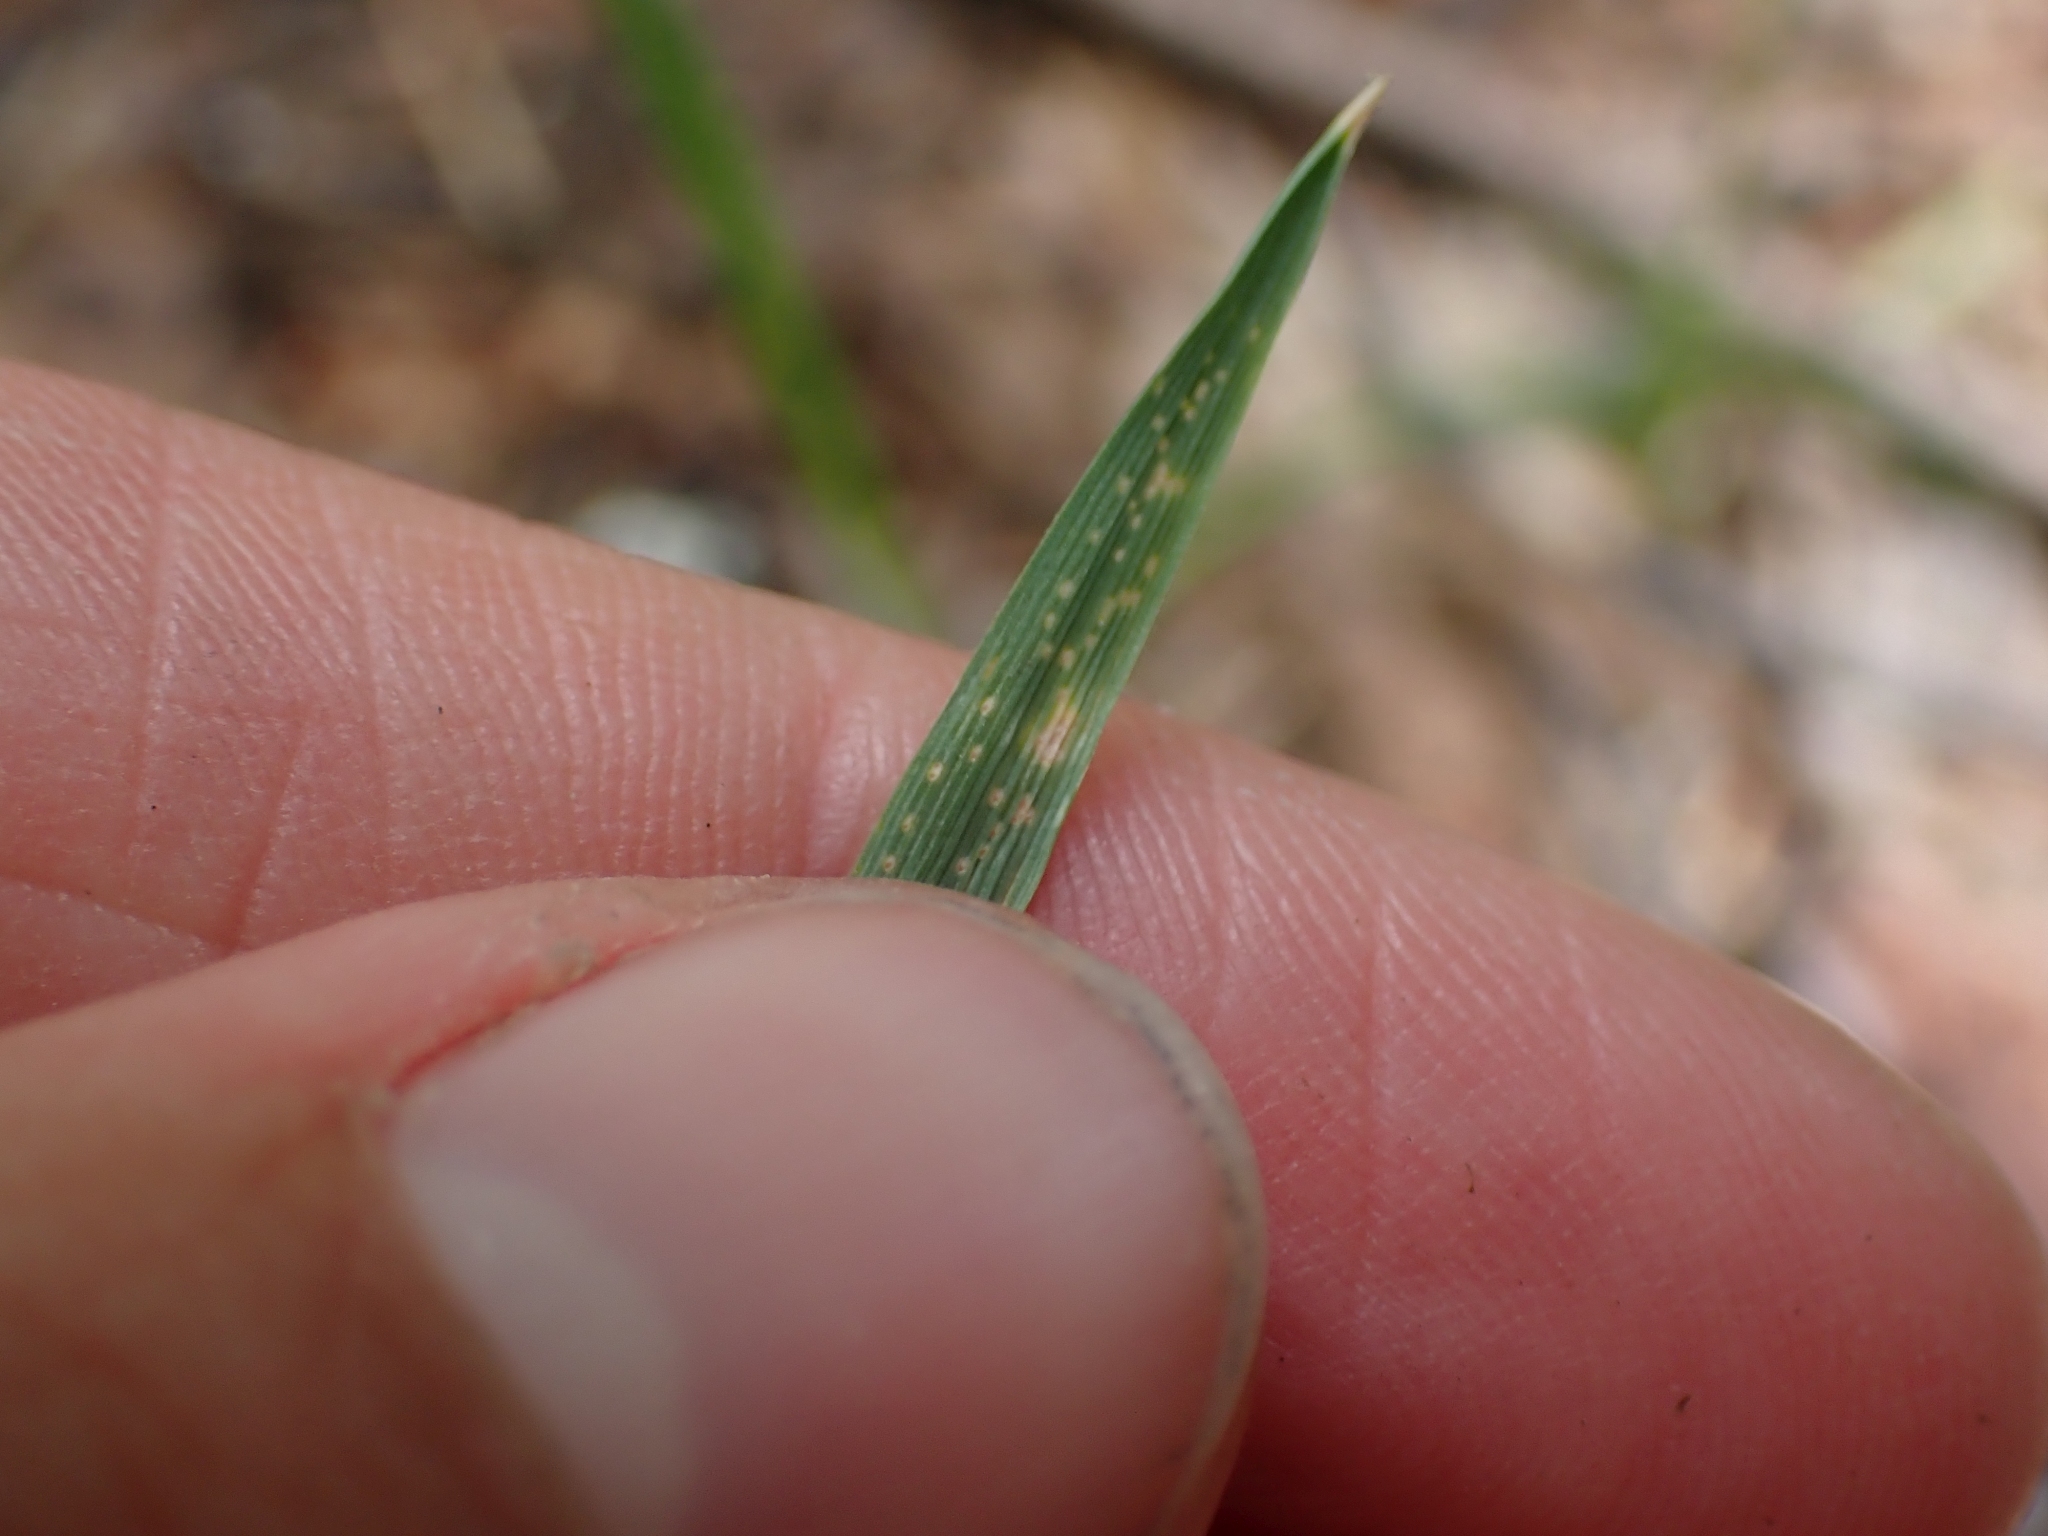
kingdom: Plantae
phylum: Tracheophyta
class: Liliopsida
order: Poales
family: Poaceae
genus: Phleum
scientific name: Phleum alpinum
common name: Alpine cat's-tail
